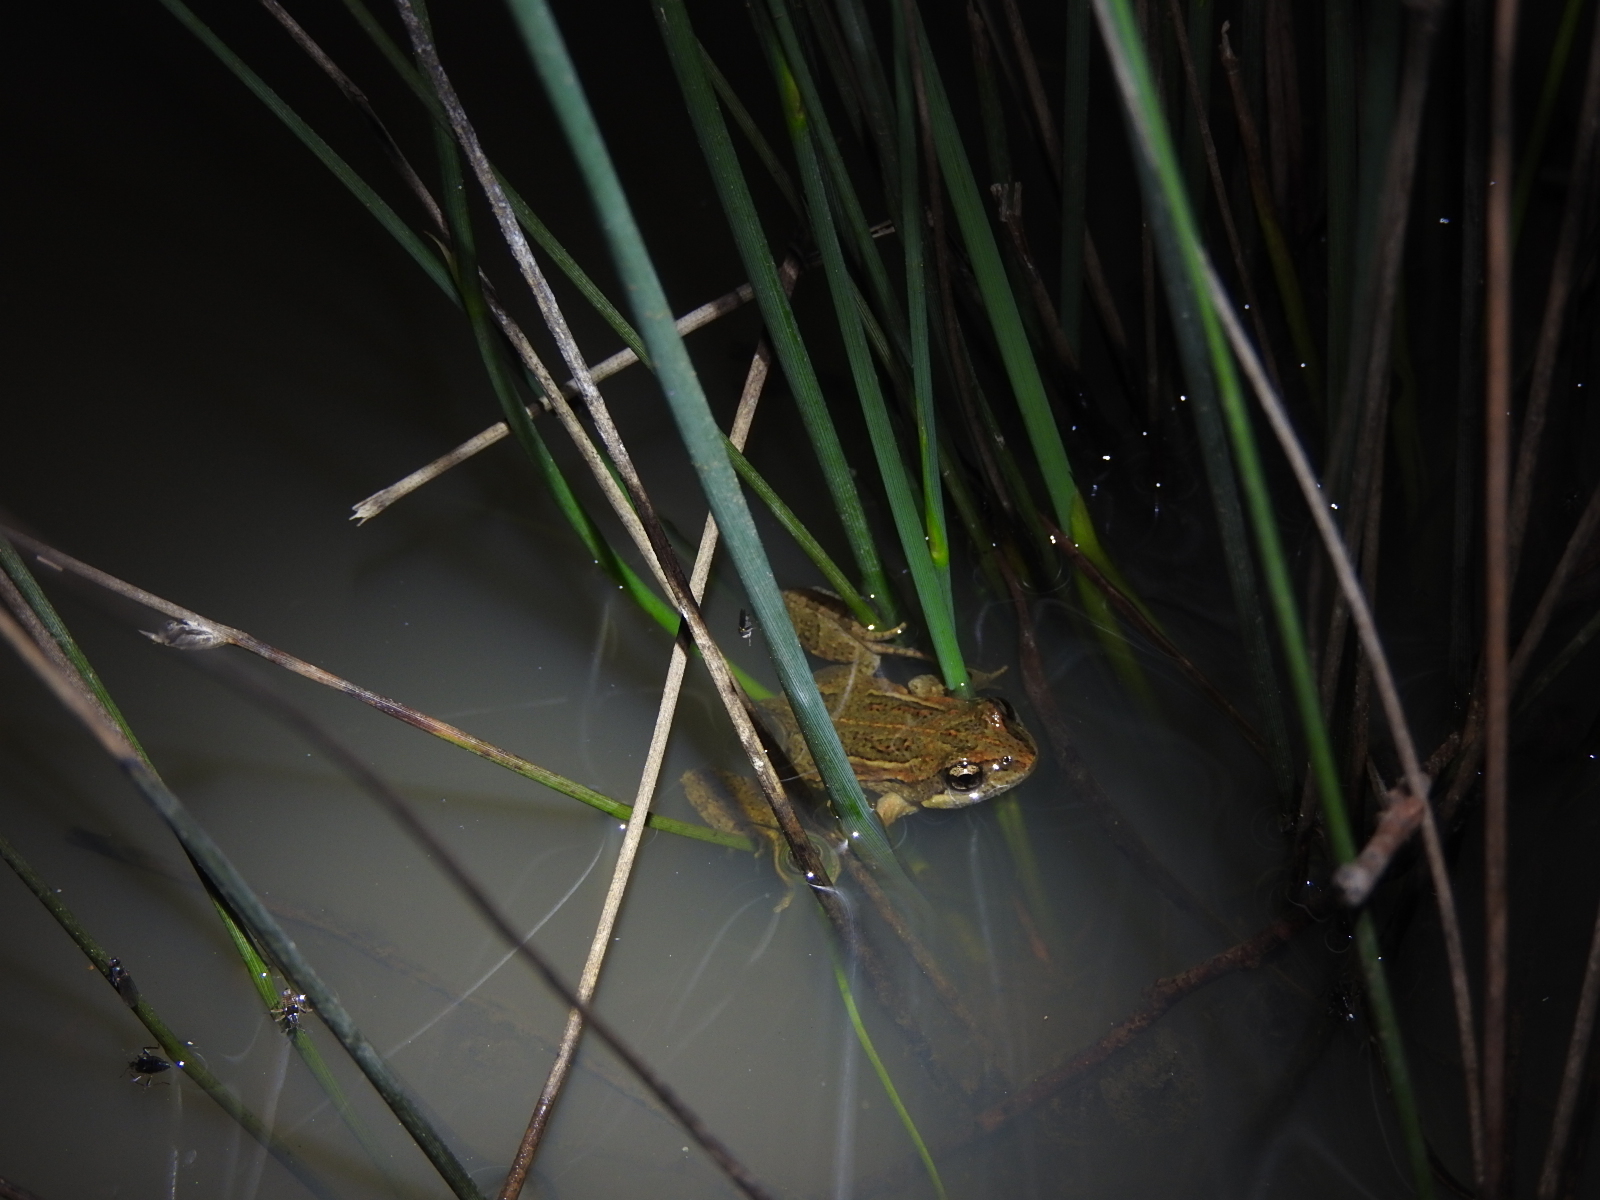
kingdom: Animalia
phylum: Chordata
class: Amphibia
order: Anura
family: Myobatrachidae
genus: Crinia
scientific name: Crinia signifera
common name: Brown froglet
